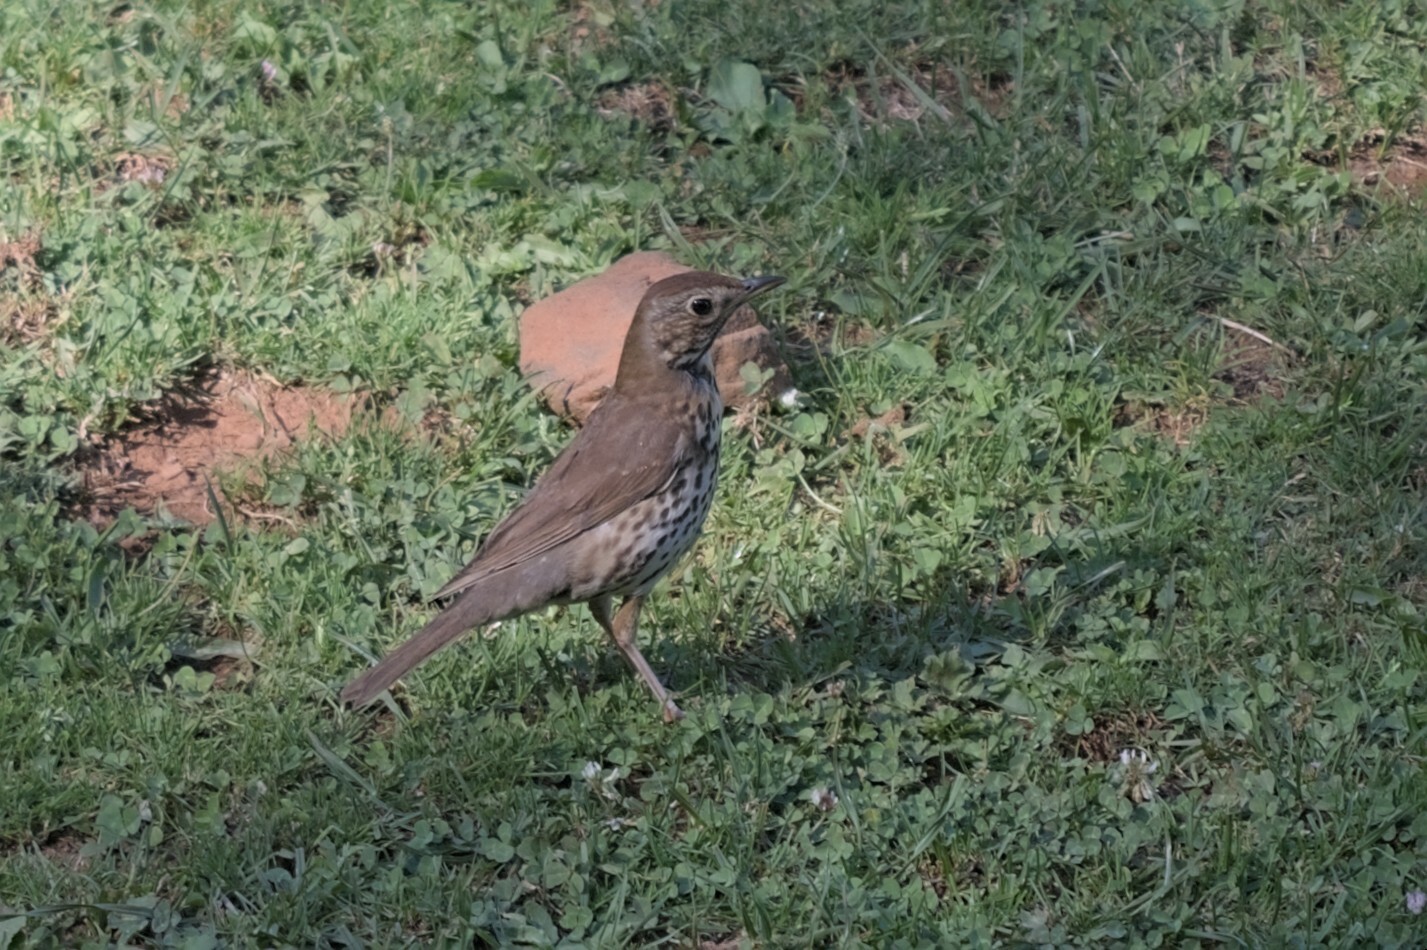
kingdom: Animalia
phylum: Chordata
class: Aves
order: Passeriformes
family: Turdidae
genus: Turdus
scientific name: Turdus philomelos
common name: Song thrush
